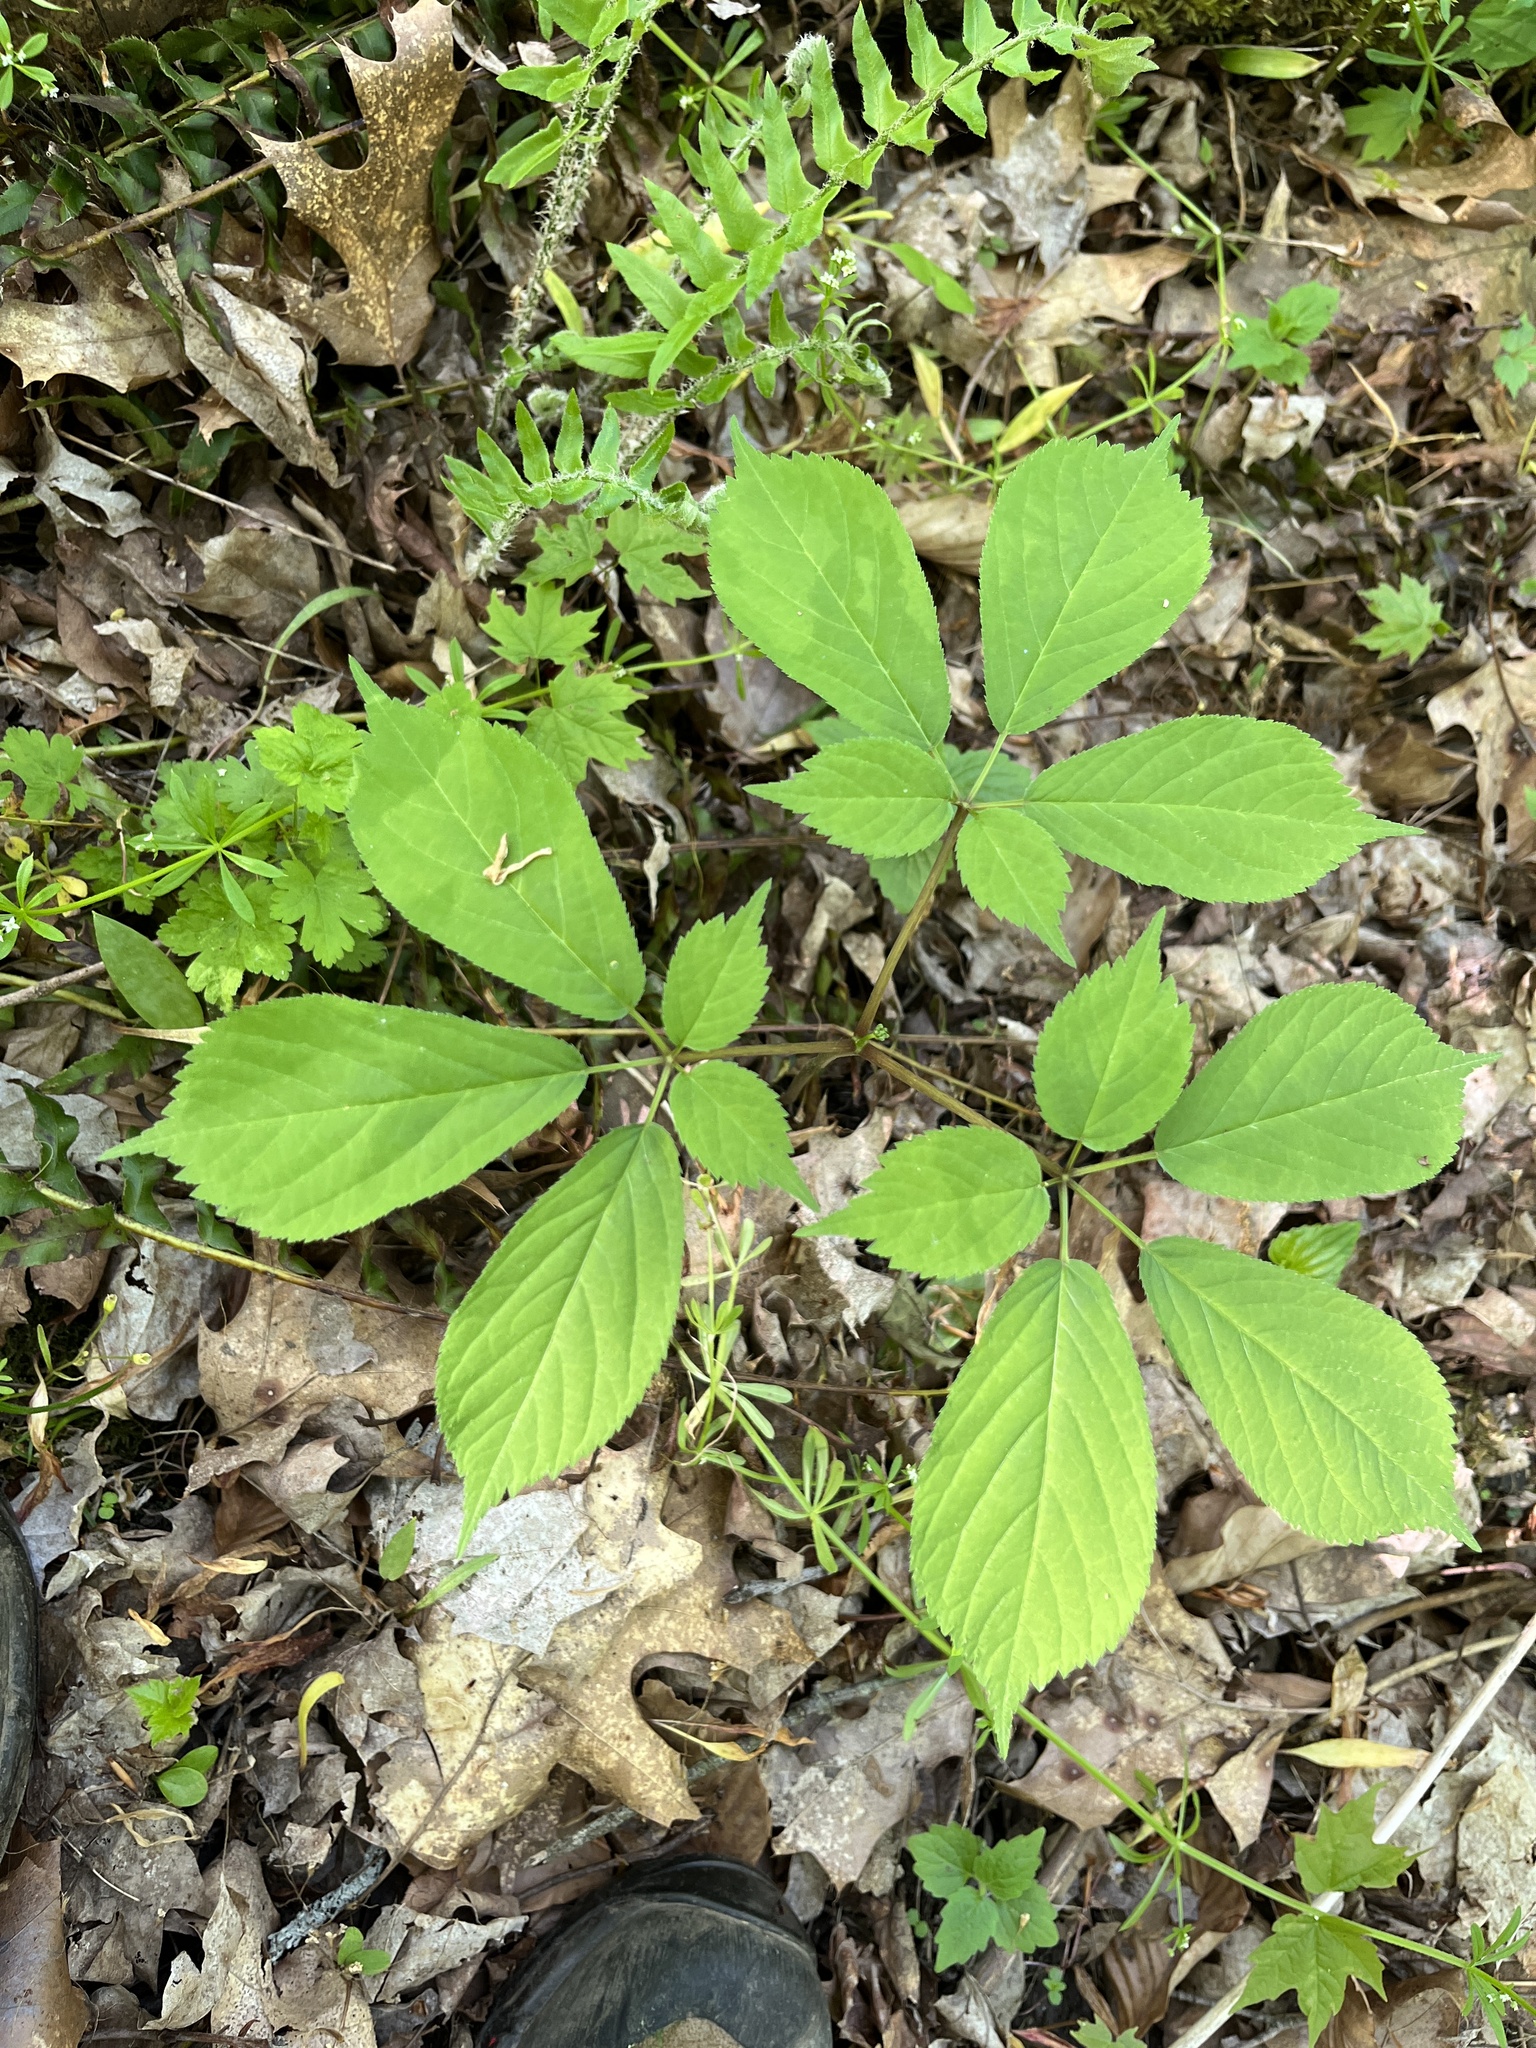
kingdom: Plantae
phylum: Tracheophyta
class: Magnoliopsida
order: Apiales
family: Araliaceae
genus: Panax
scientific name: Panax quinquefolius
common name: American ginseng
